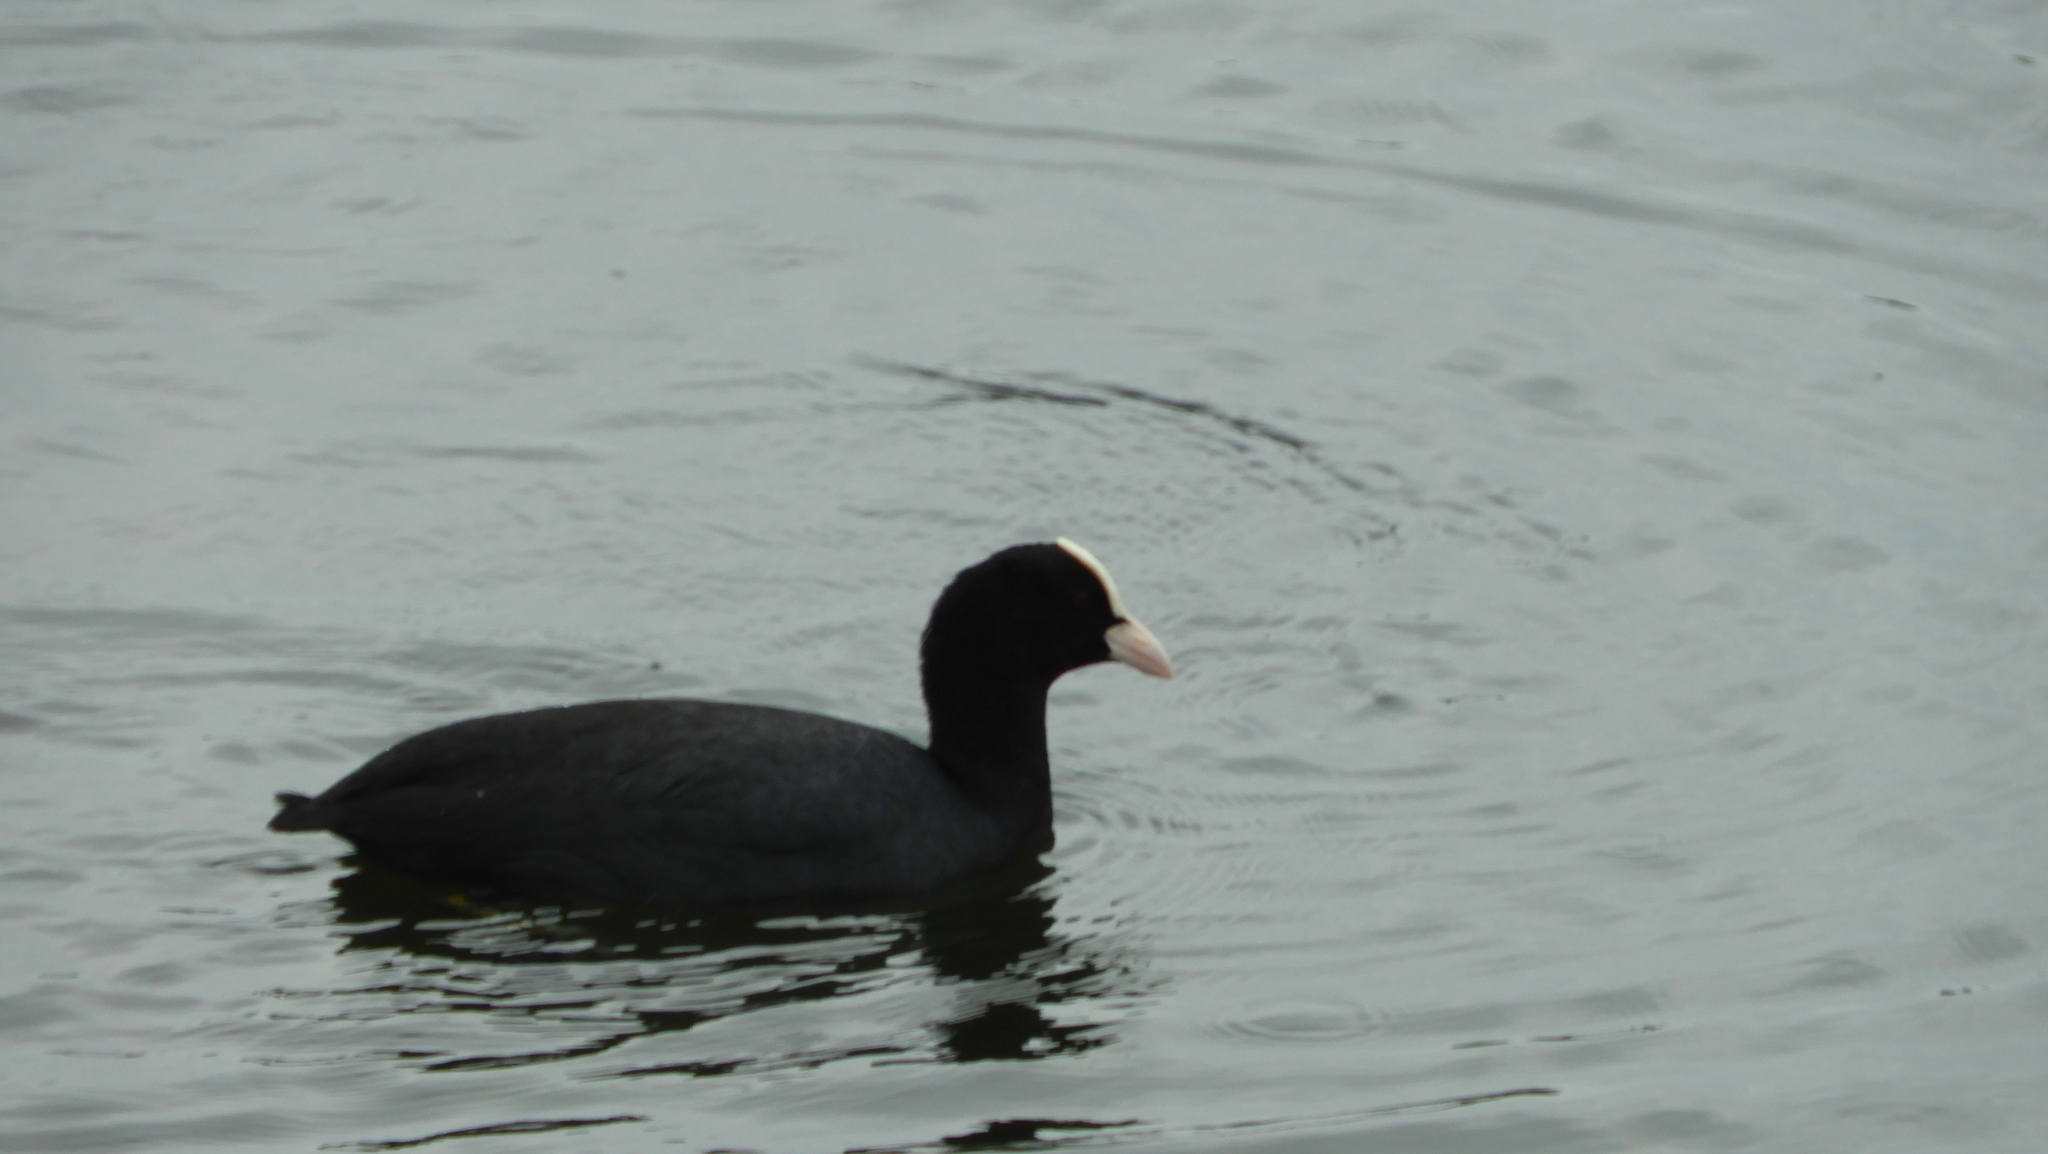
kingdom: Animalia
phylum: Chordata
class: Aves
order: Gruiformes
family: Rallidae
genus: Fulica
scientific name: Fulica atra
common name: Eurasian coot
